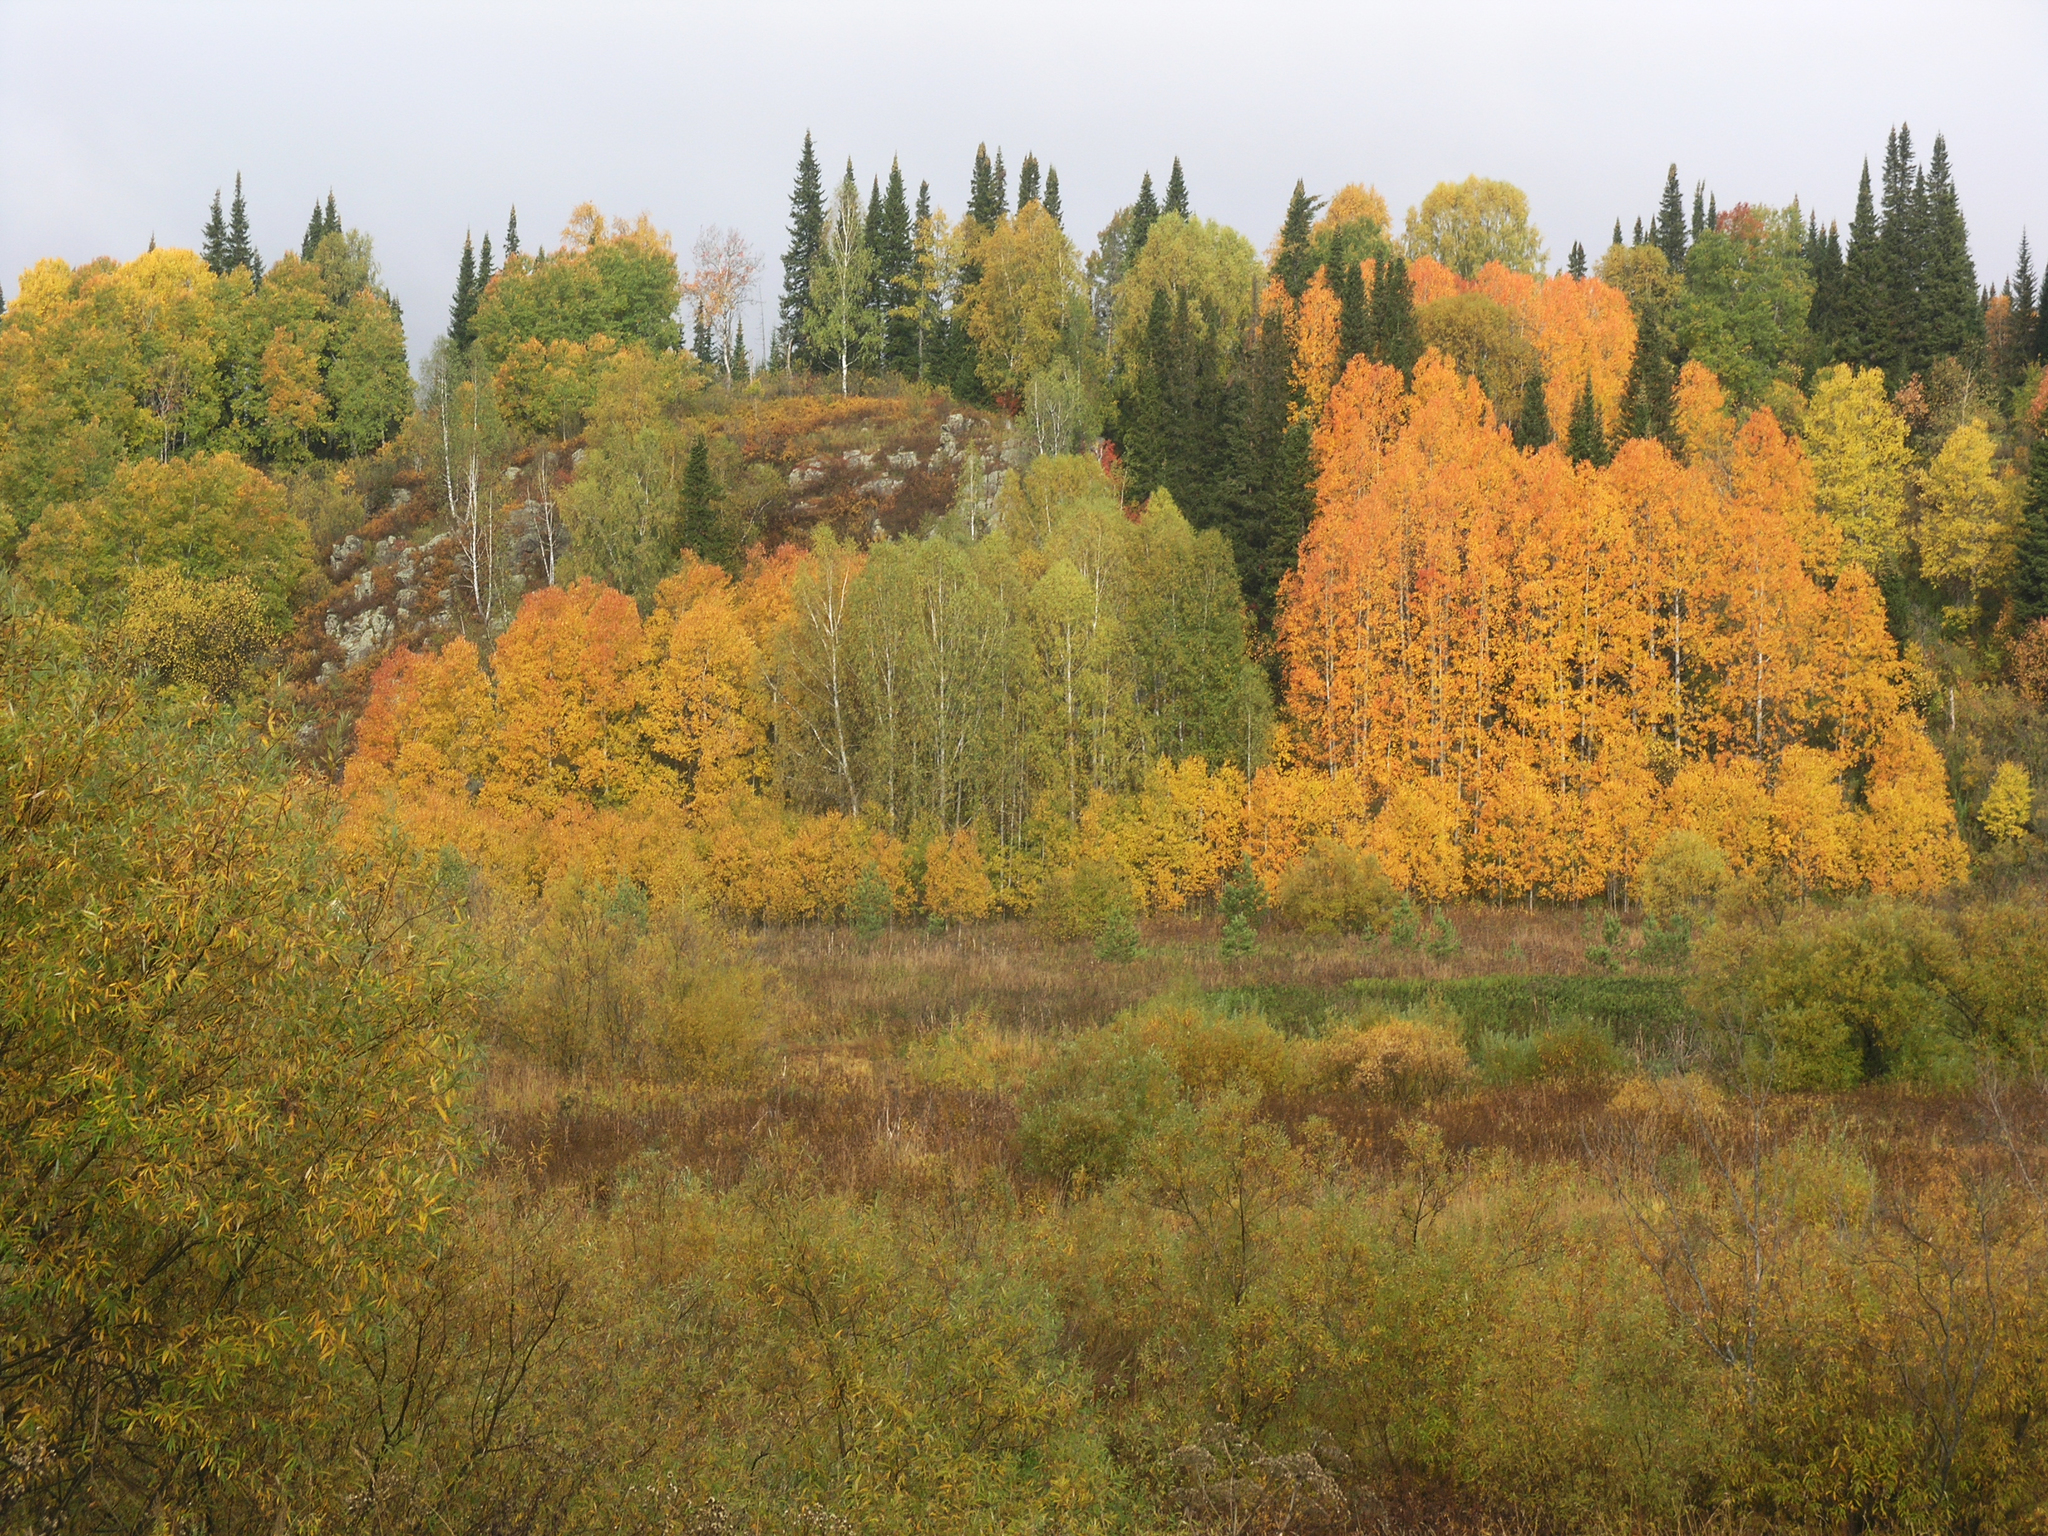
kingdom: Plantae
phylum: Tracheophyta
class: Magnoliopsida
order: Malpighiales
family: Salicaceae
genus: Populus
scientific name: Populus tremula
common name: European aspen
